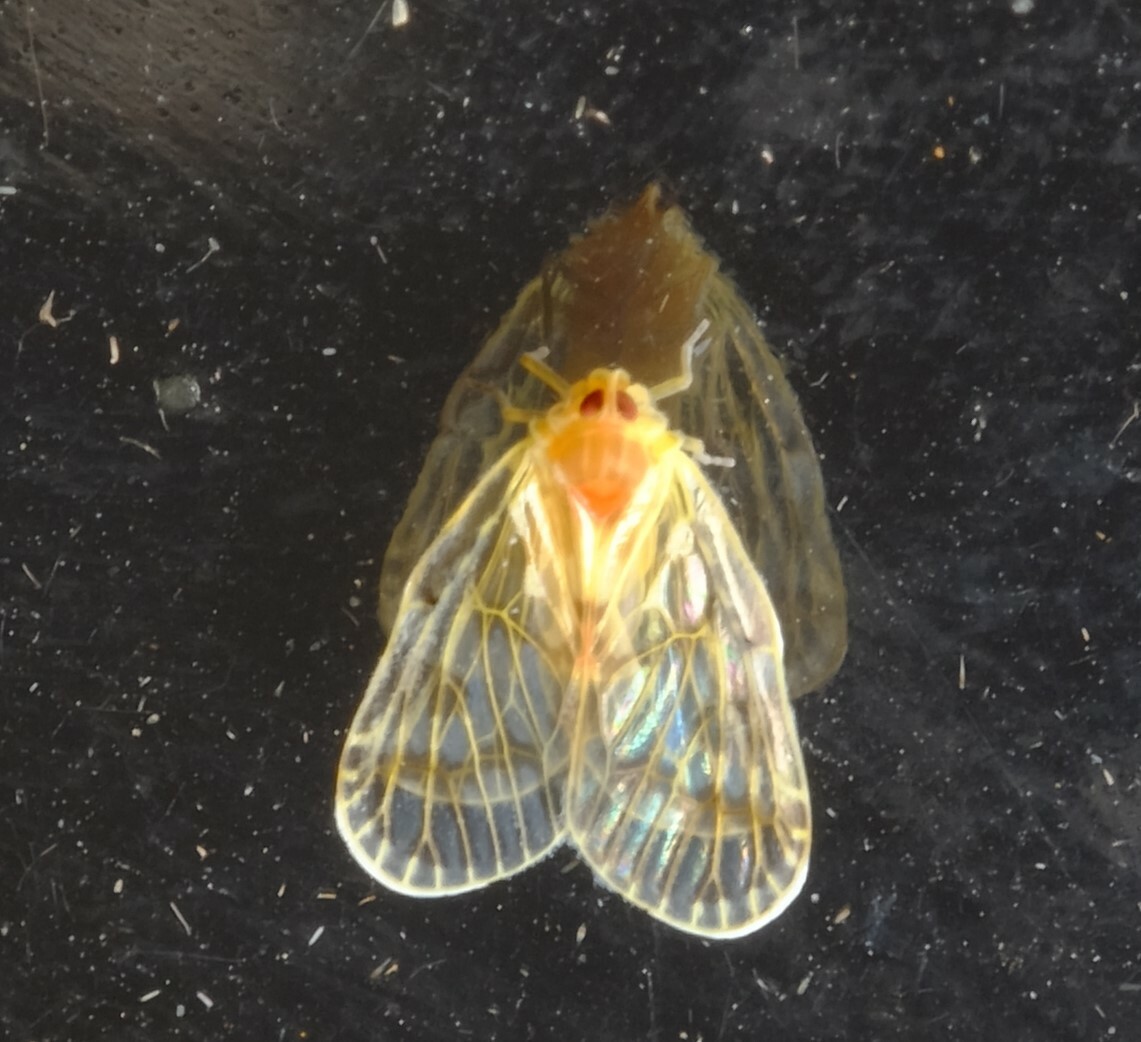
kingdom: Animalia
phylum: Arthropoda
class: Insecta
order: Hemiptera
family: Derbidae
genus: Saccharodite
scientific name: Saccharodite chrysonoe
